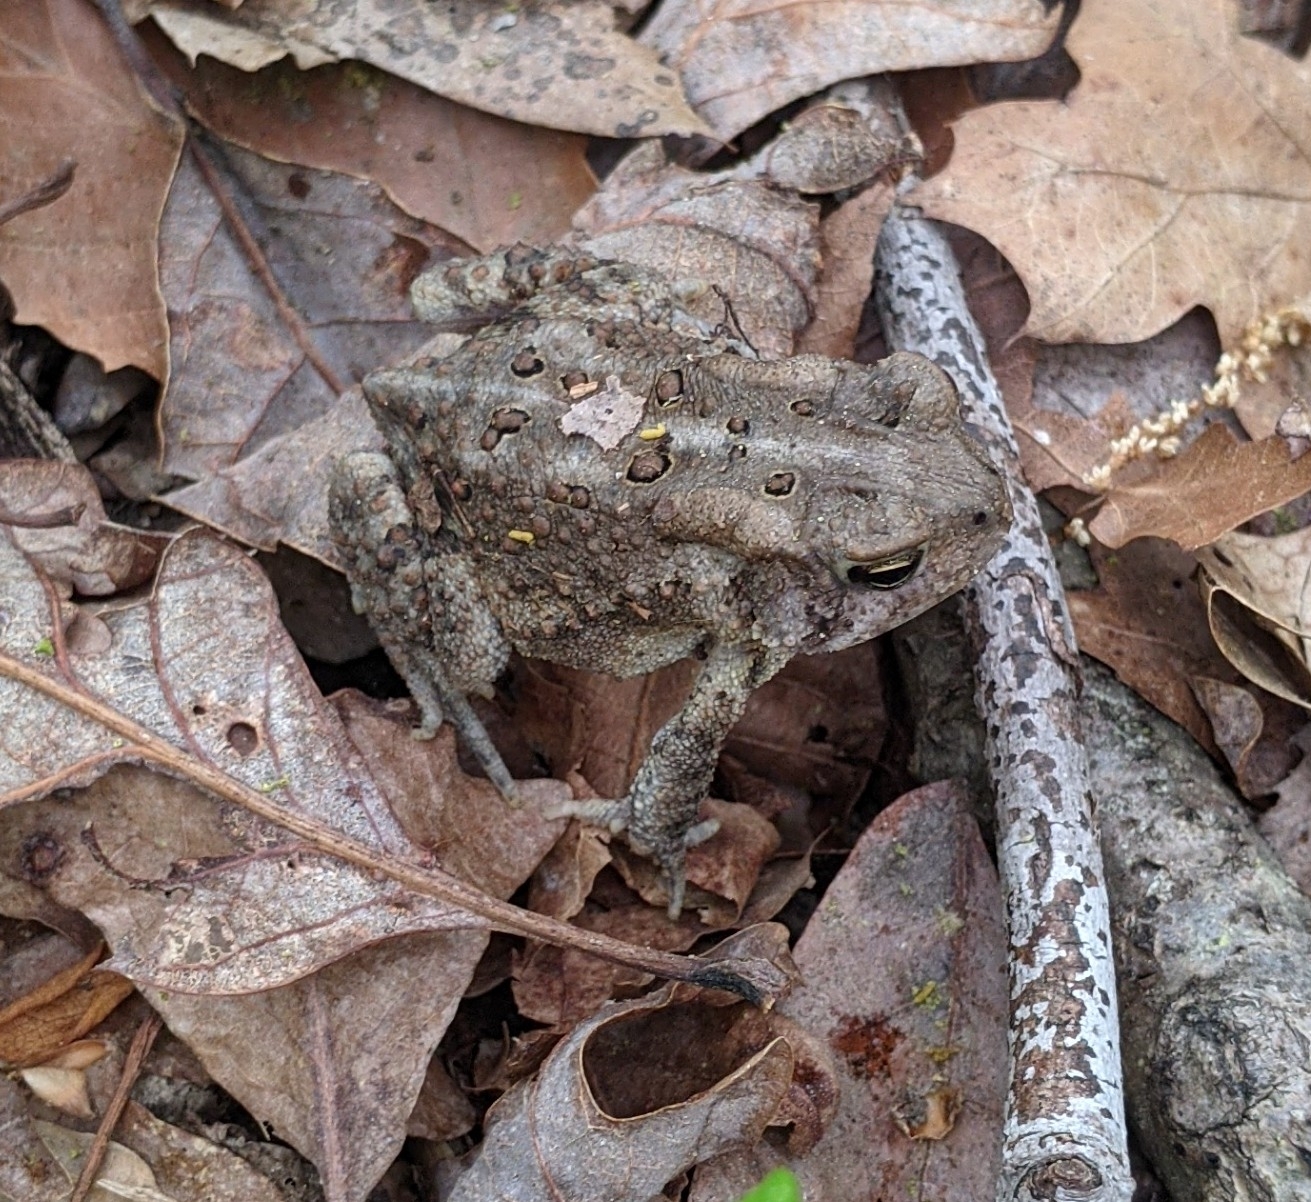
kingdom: Animalia
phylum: Chordata
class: Amphibia
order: Anura
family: Bufonidae
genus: Anaxyrus
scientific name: Anaxyrus americanus
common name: American toad
